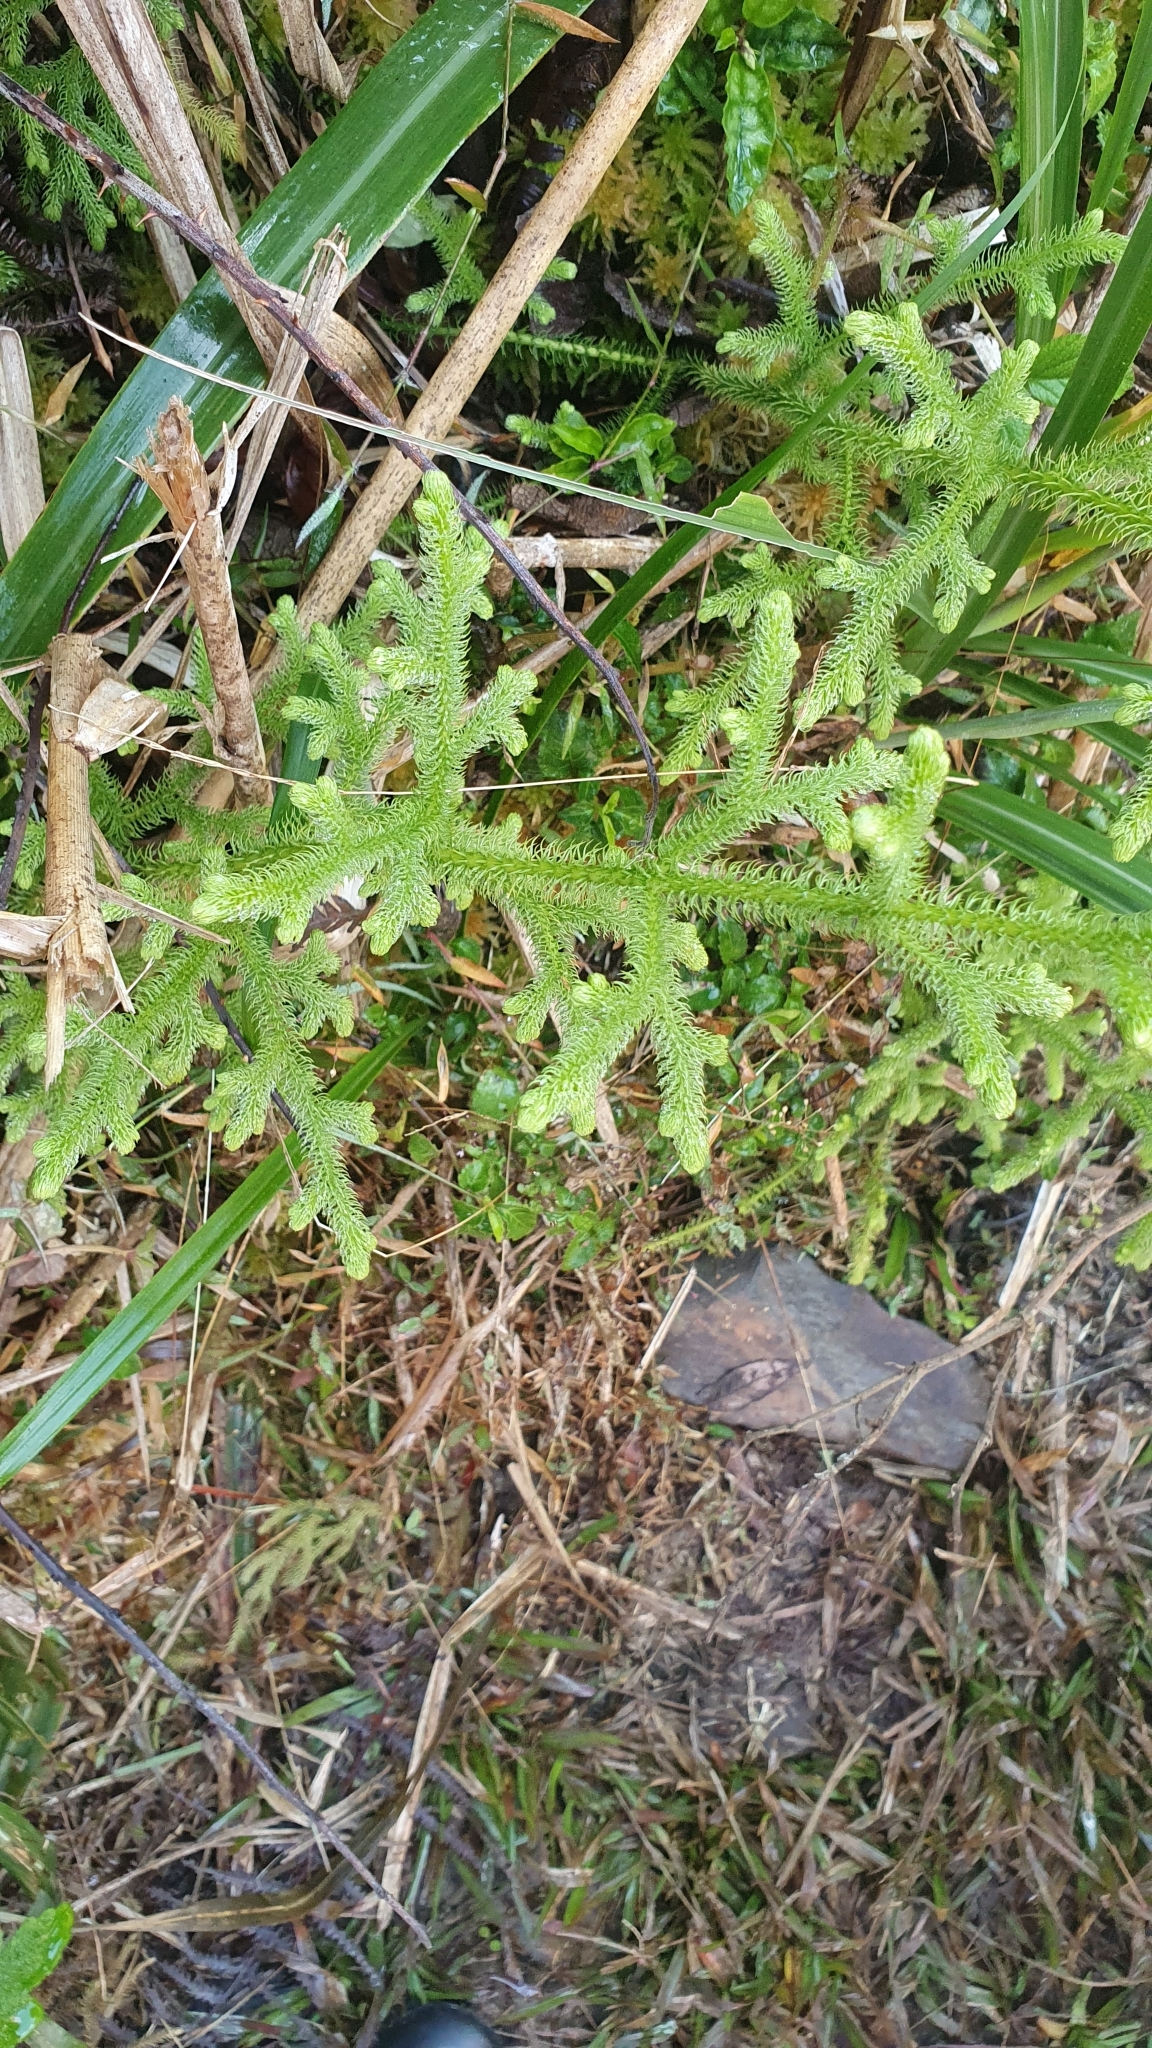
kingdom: Plantae
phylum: Tracheophyta
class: Lycopodiopsida
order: Lycopodiales
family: Lycopodiaceae
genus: Palhinhaea
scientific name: Palhinhaea cernua
